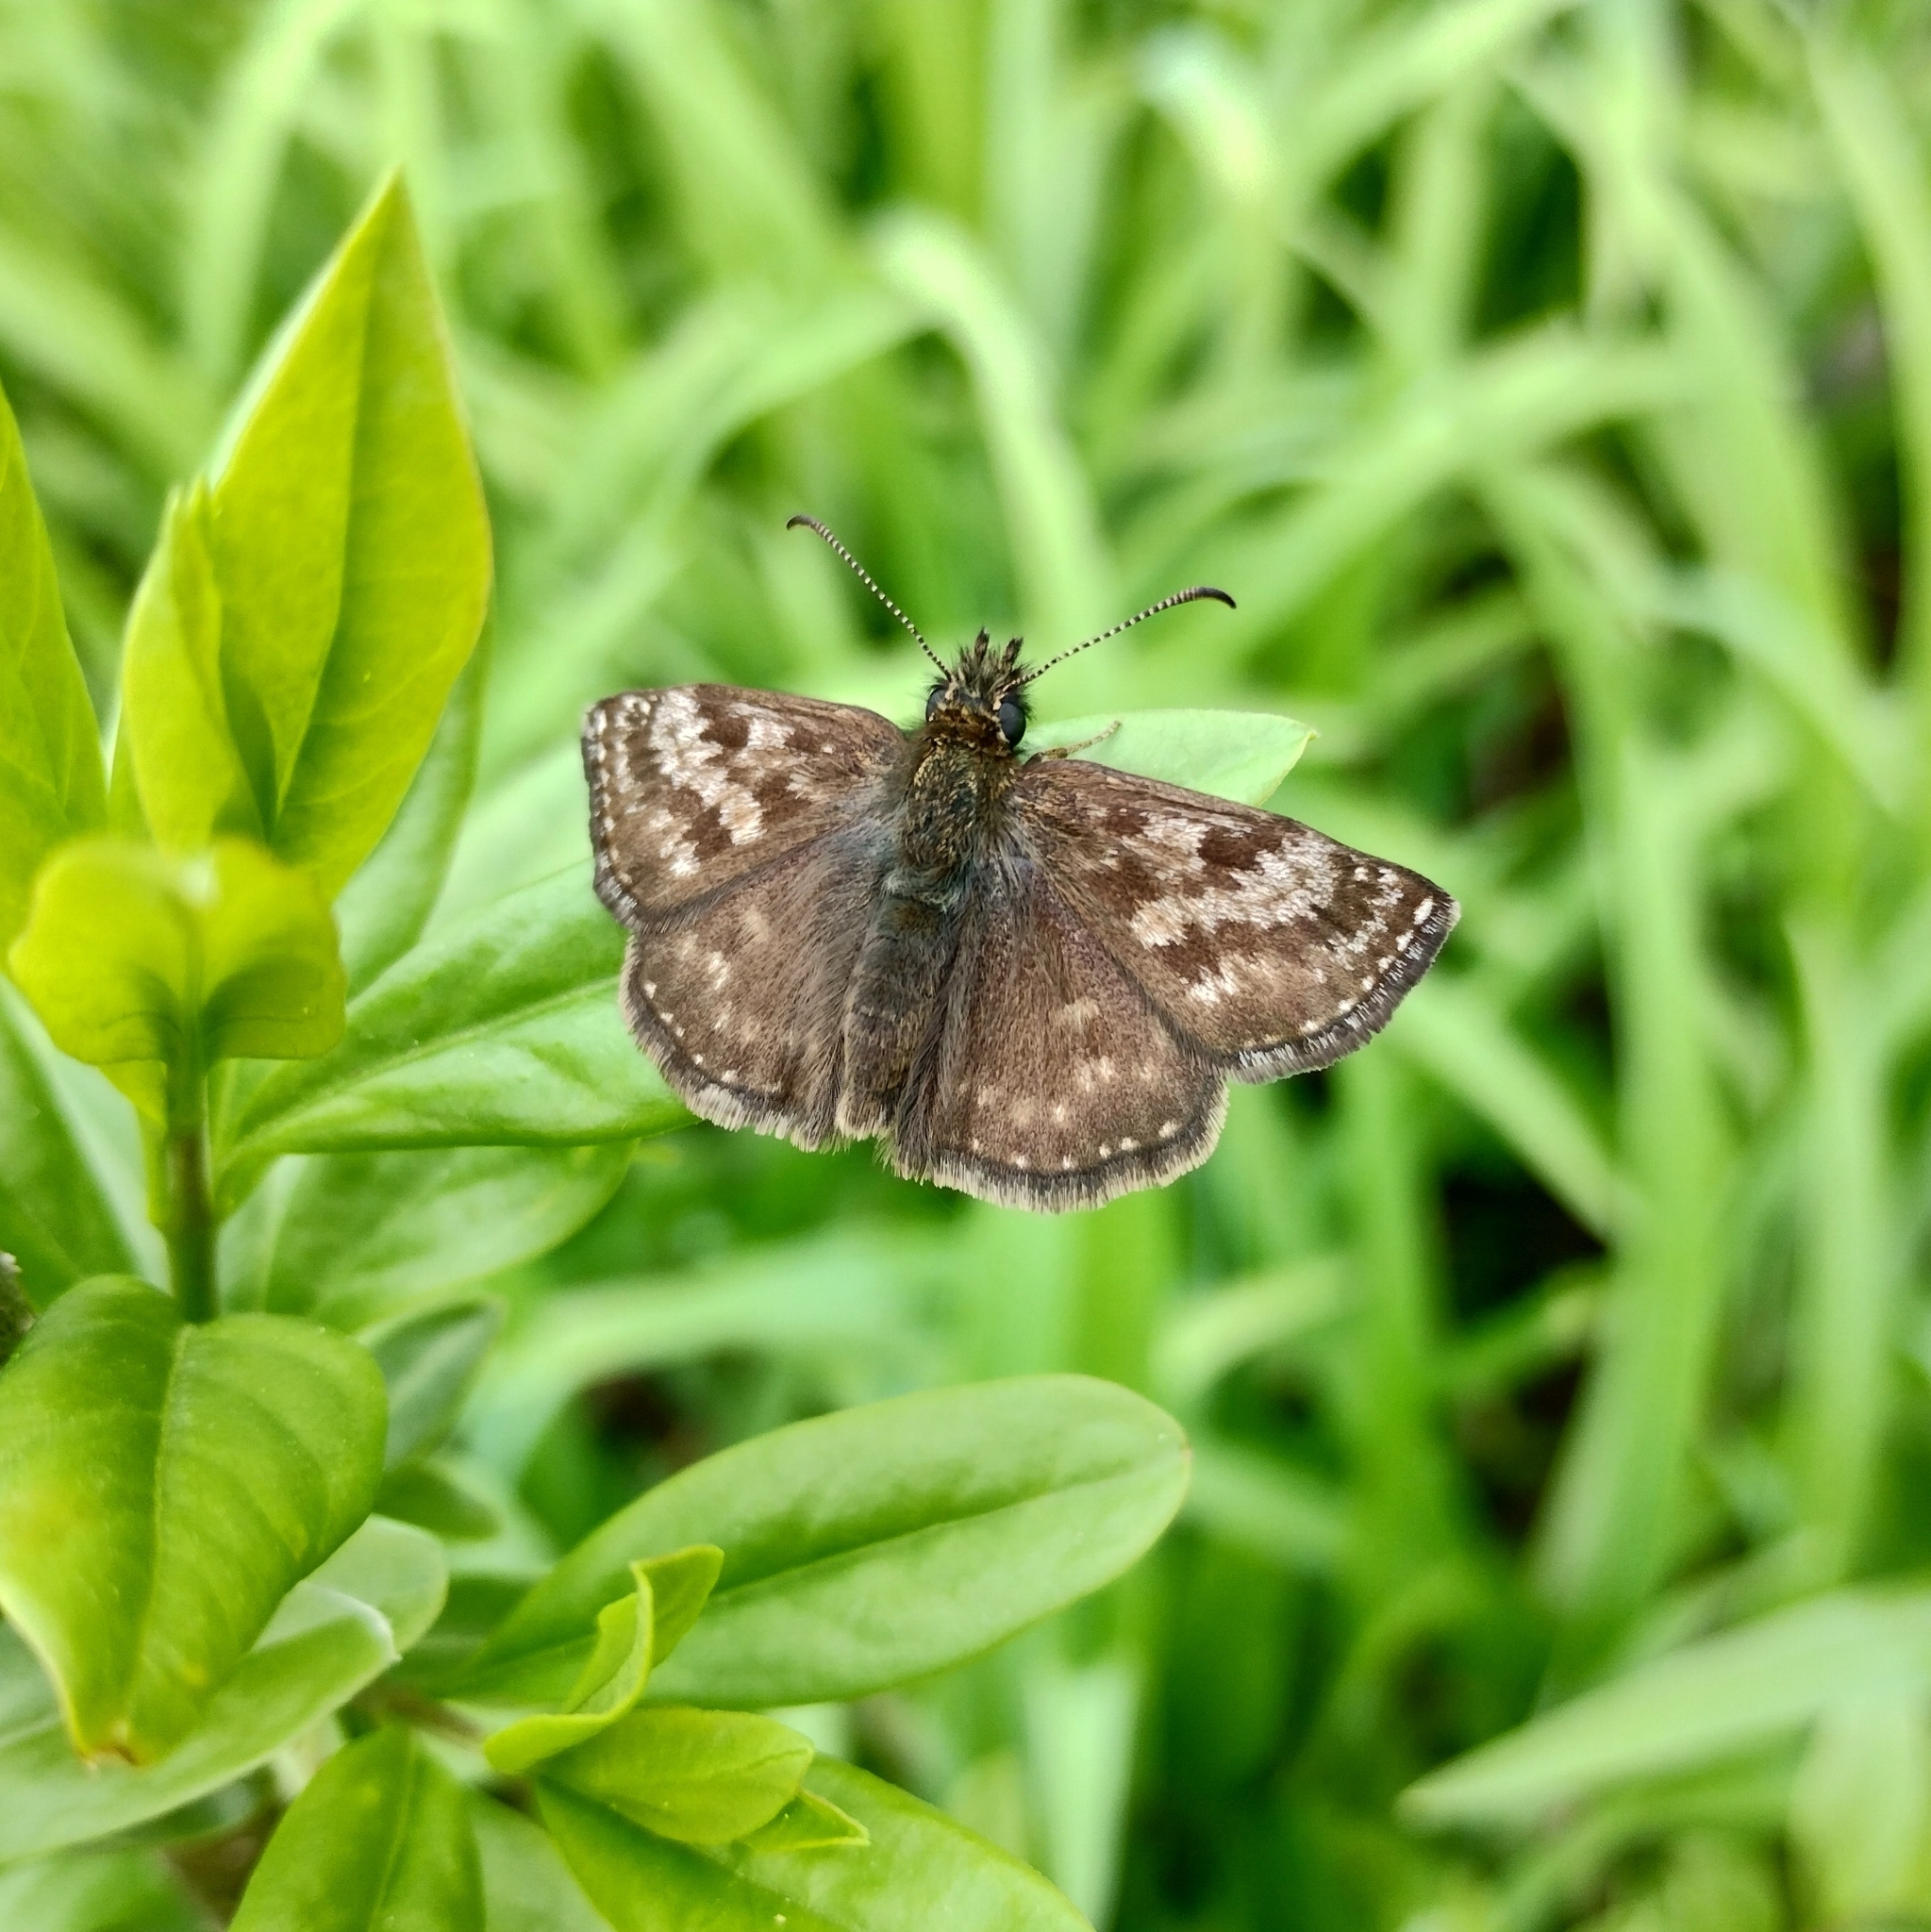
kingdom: Animalia
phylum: Arthropoda
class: Insecta
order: Lepidoptera
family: Hesperiidae
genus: Erynnis
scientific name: Erynnis tages
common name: Dingy skipper
